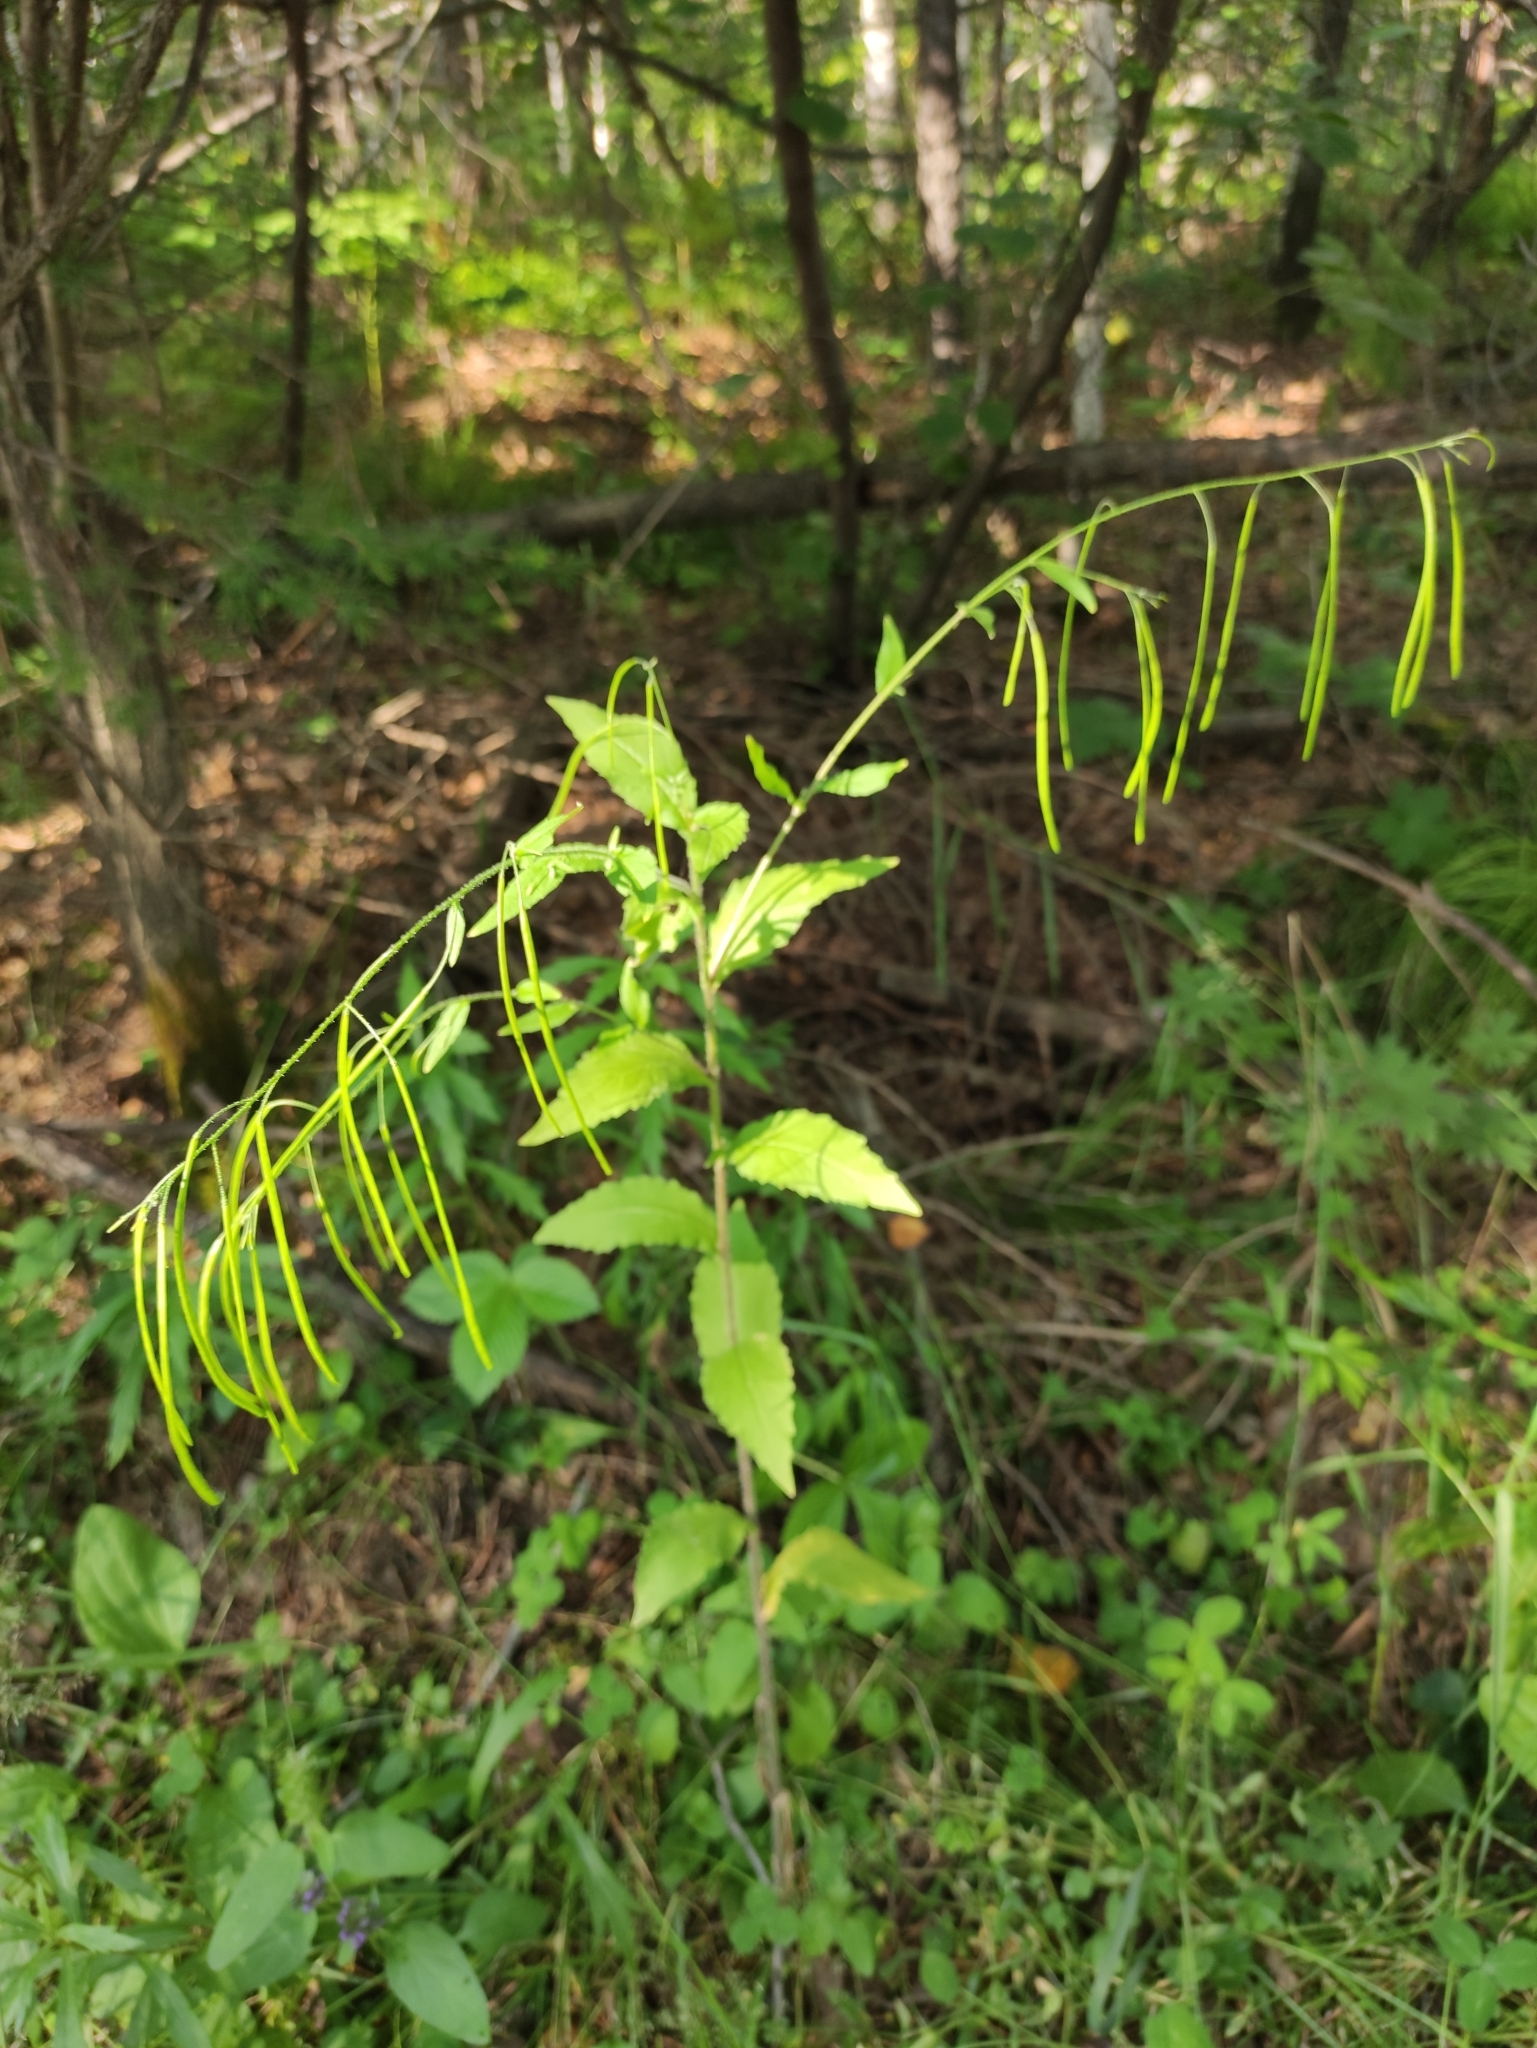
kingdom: Plantae
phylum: Tracheophyta
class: Magnoliopsida
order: Brassicales
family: Brassicaceae
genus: Catolobus
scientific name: Catolobus pendulus
